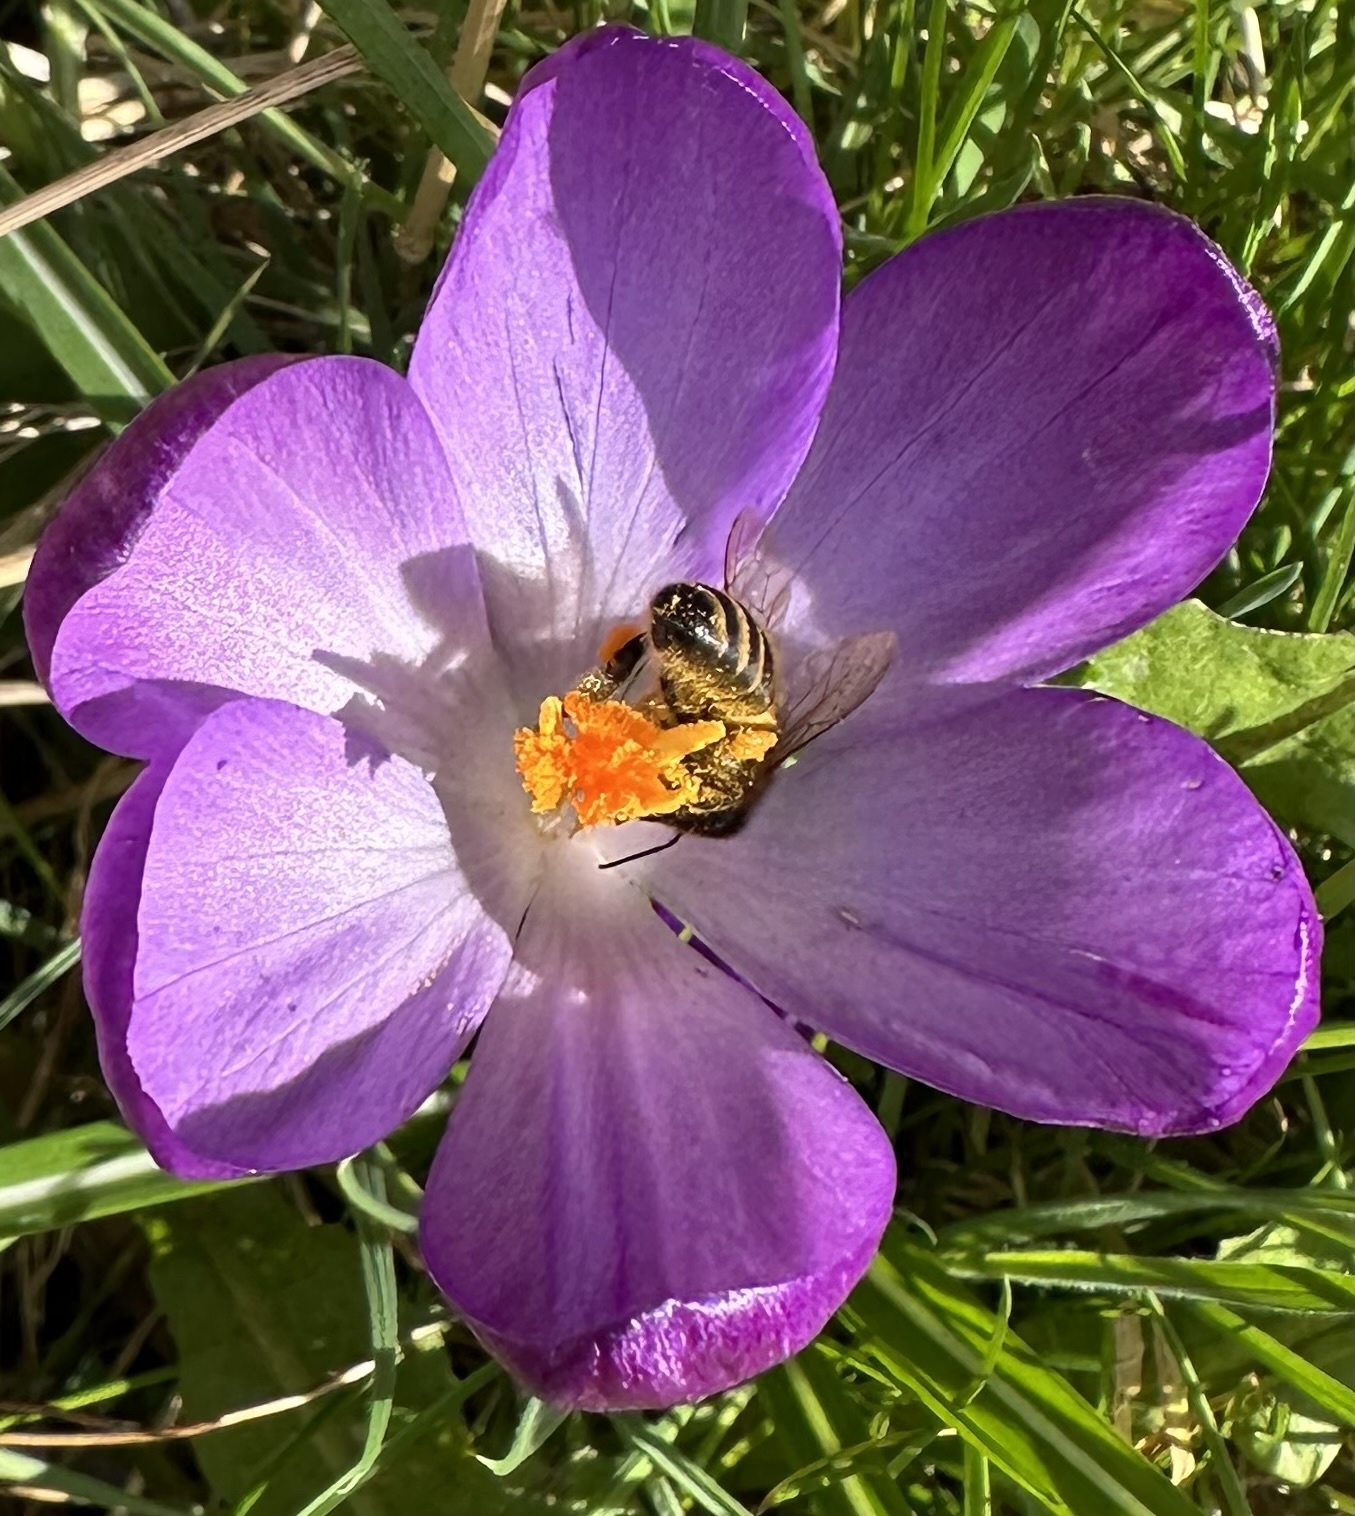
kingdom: Animalia
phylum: Arthropoda
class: Insecta
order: Hymenoptera
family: Apidae
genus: Apis
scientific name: Apis mellifera
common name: Honey bee
